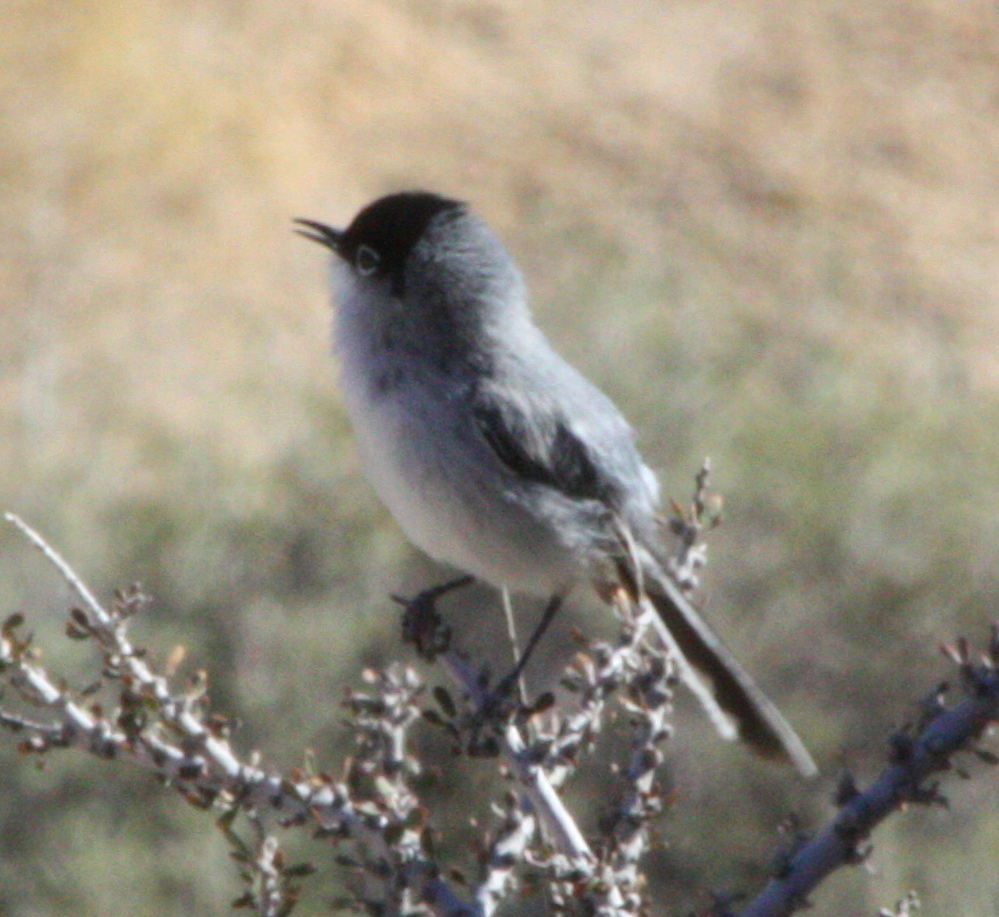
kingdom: Animalia
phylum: Chordata
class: Aves
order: Passeriformes
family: Polioptilidae
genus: Polioptila
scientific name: Polioptila melanura
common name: Black-tailed gnatcatcher
